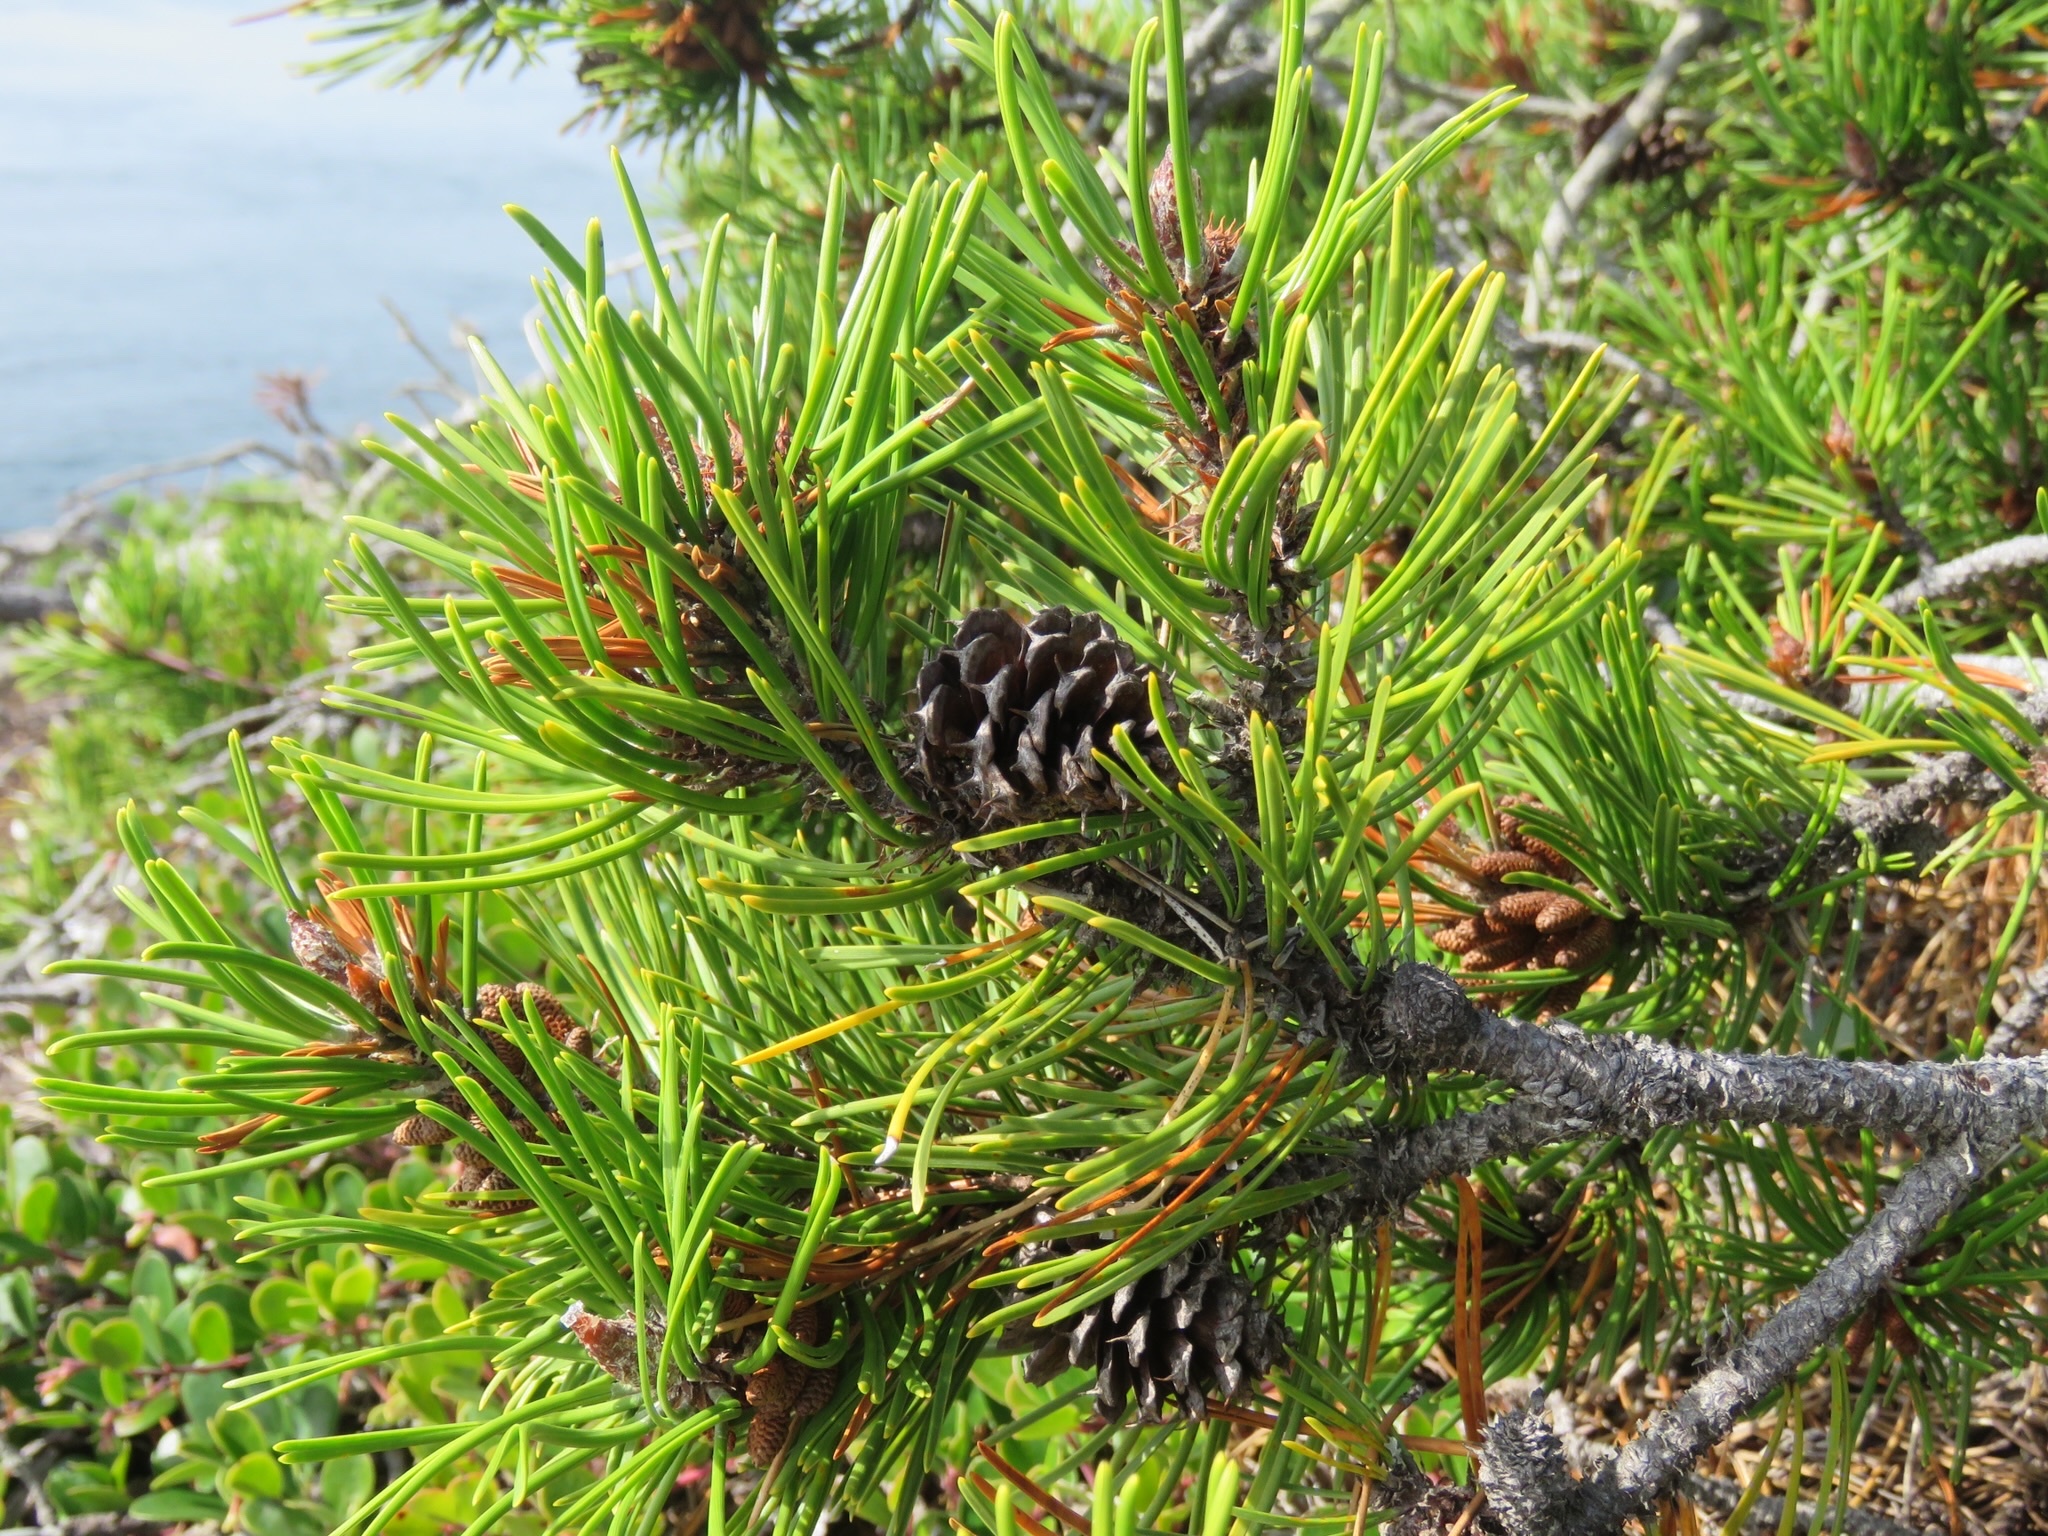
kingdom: Plantae
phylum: Tracheophyta
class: Pinopsida
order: Pinales
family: Pinaceae
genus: Pinus
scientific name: Pinus contorta
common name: Lodgepole pine
